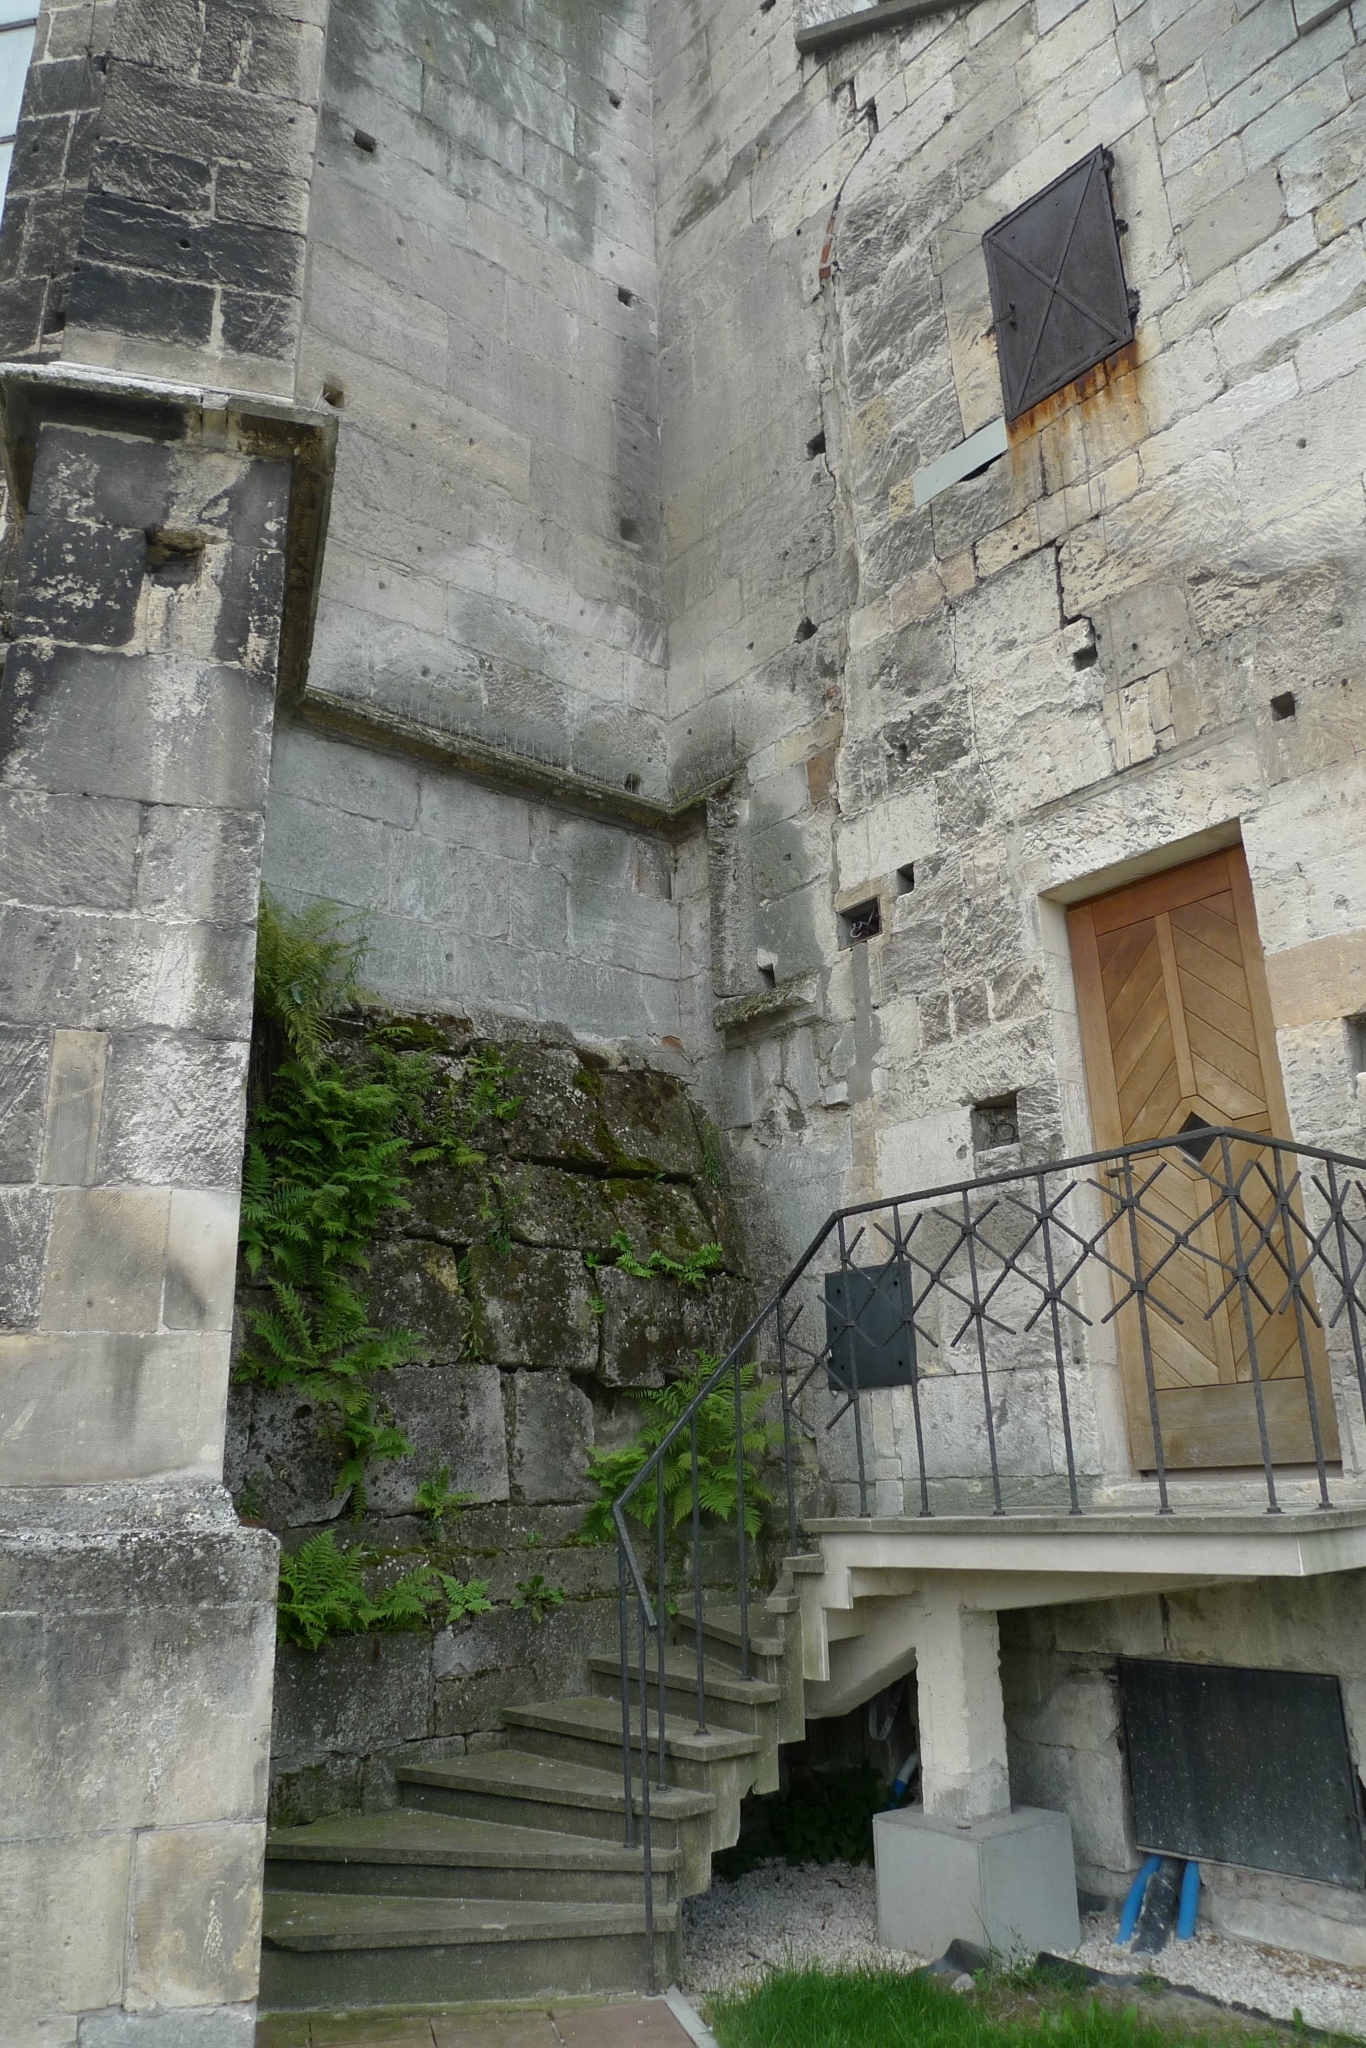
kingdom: Plantae
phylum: Bryophyta
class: Bryopsida
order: Pottiales
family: Pottiaceae
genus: Tortula
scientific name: Tortula muralis
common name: Wall screw-moss
